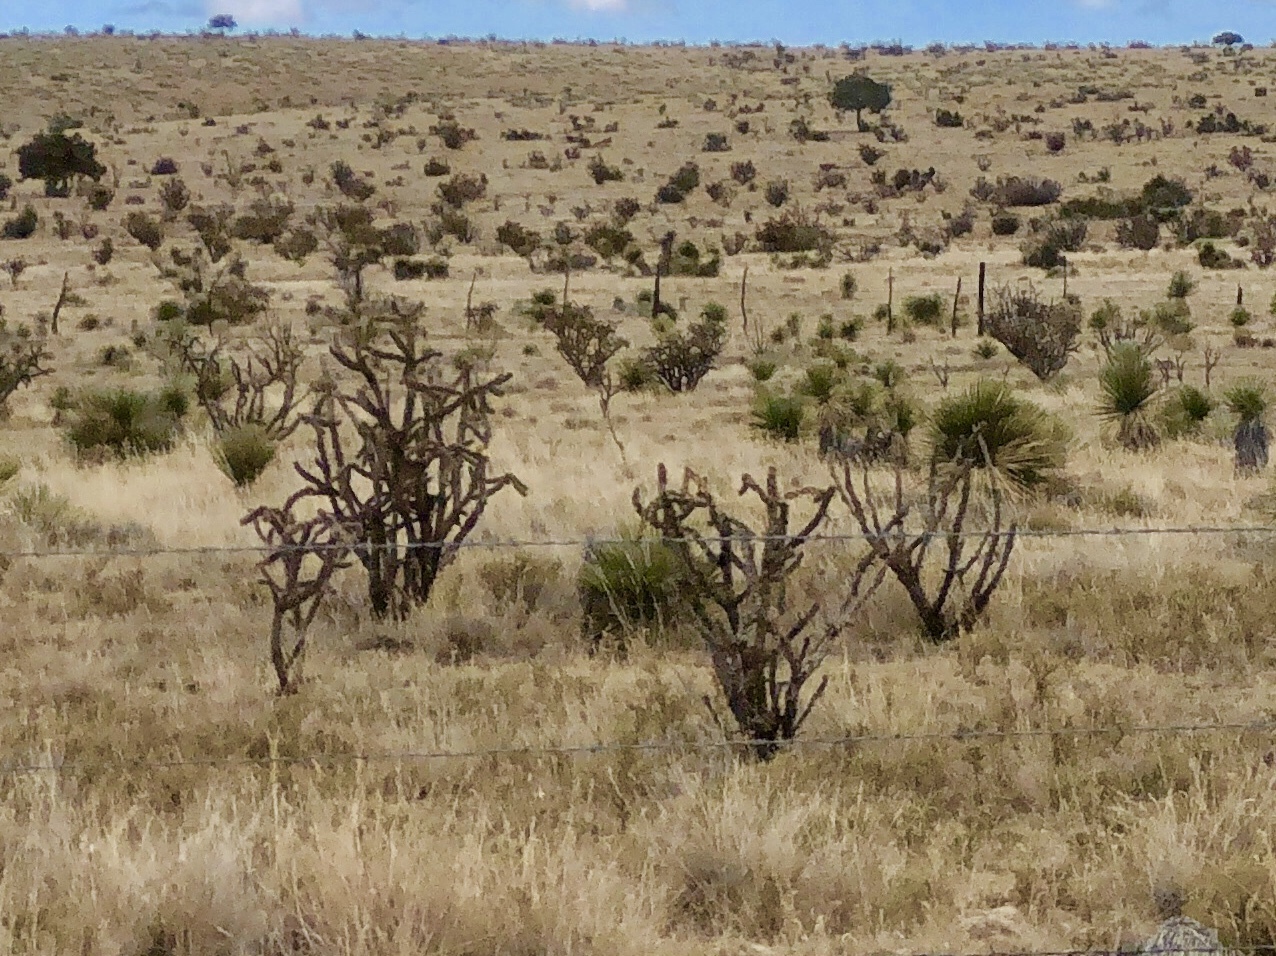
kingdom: Plantae
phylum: Tracheophyta
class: Magnoliopsida
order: Caryophyllales
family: Cactaceae
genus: Cylindropuntia
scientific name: Cylindropuntia imbricata
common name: Candelabrum cactus
